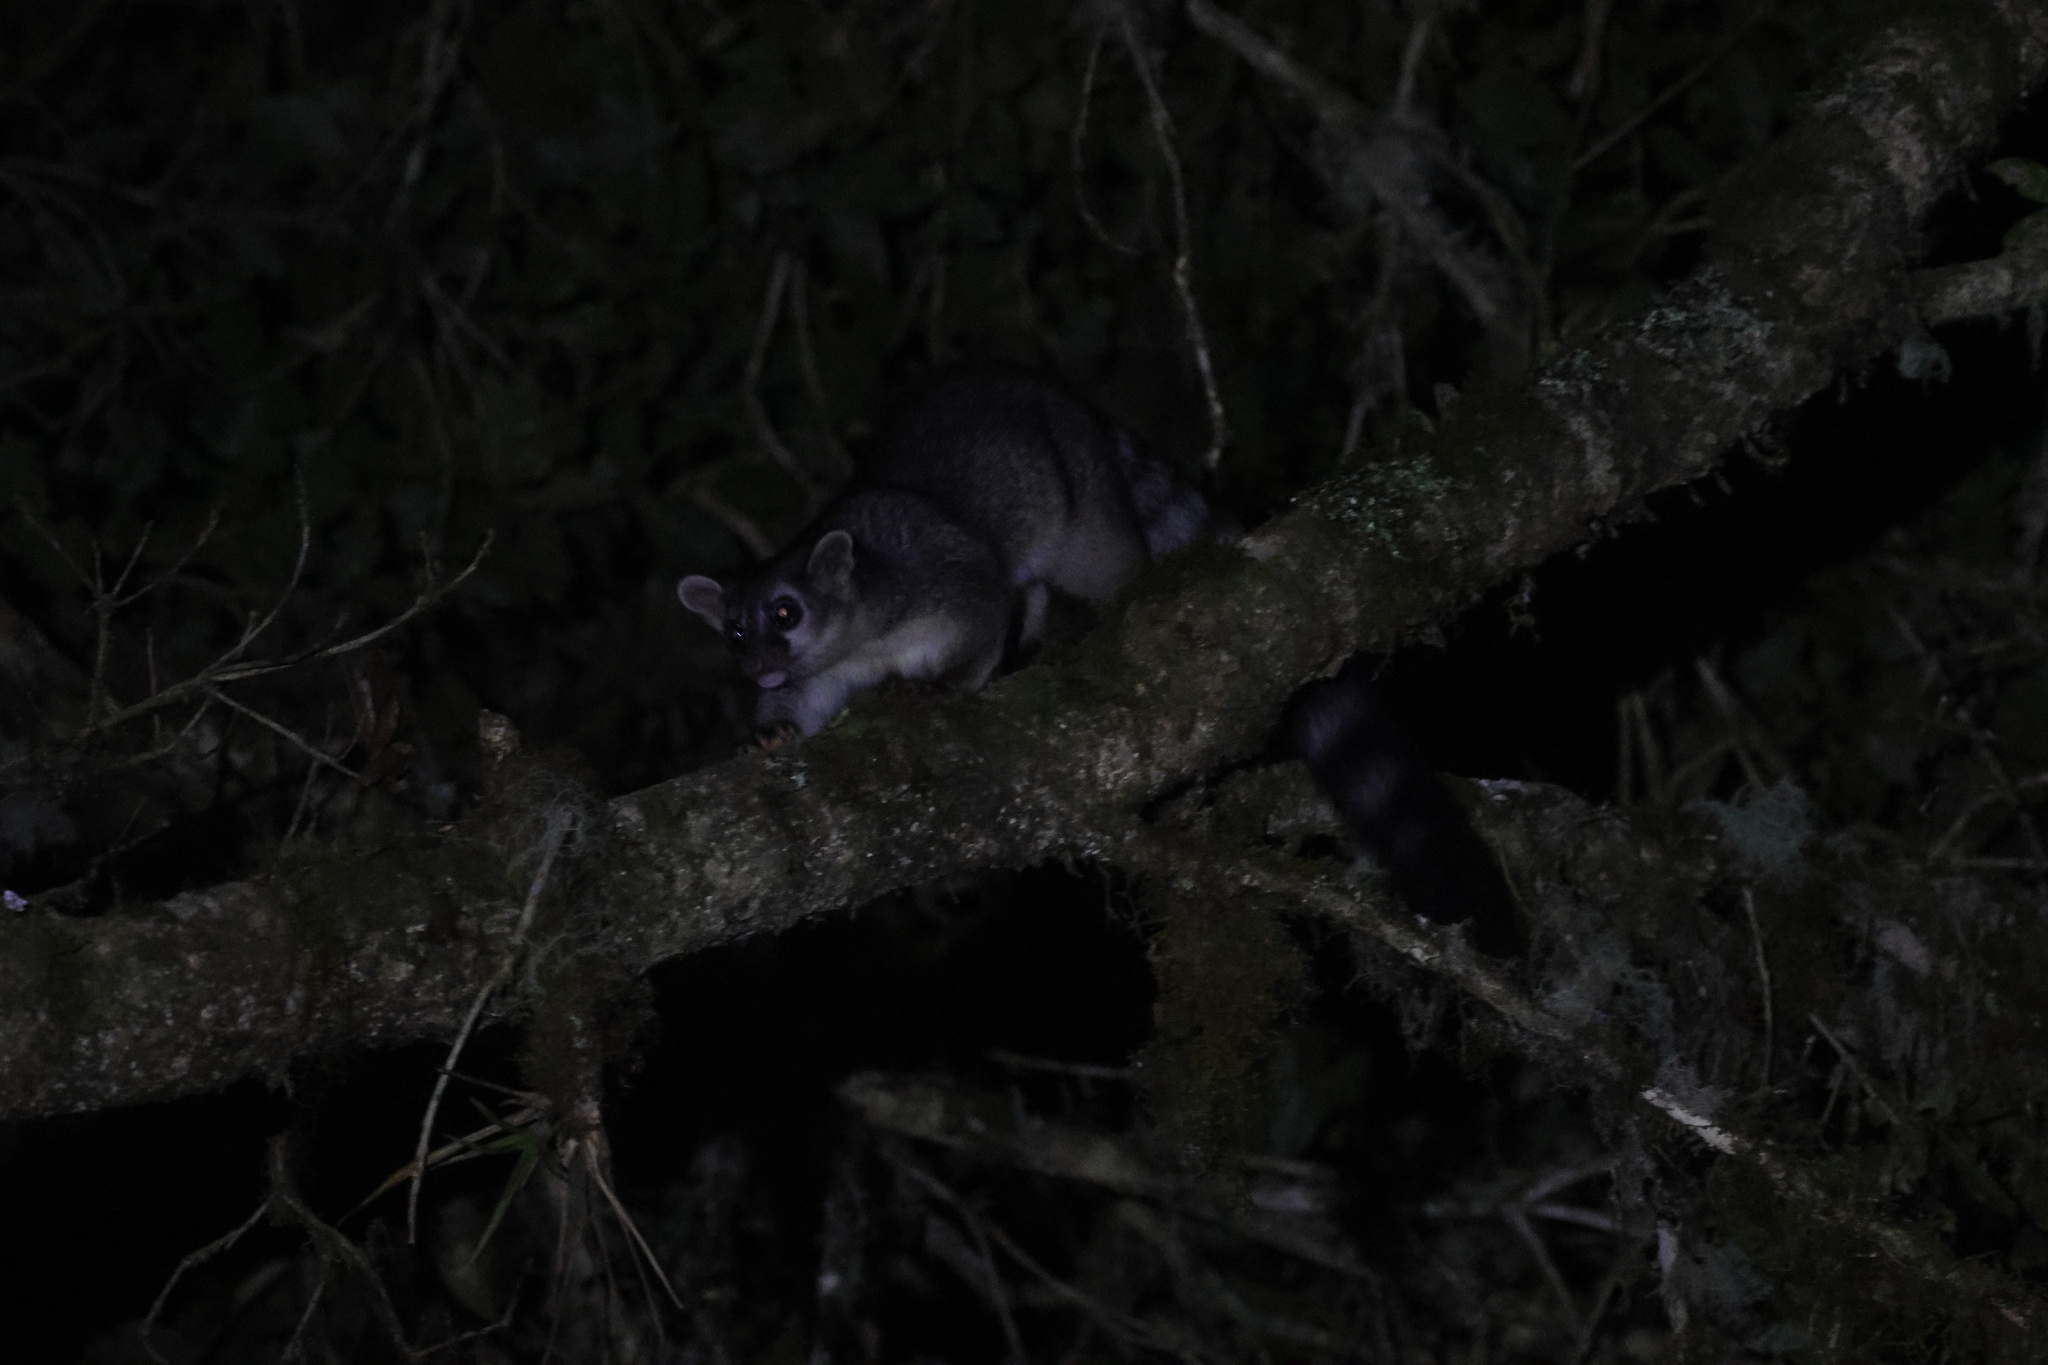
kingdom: Animalia
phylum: Chordata
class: Mammalia
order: Carnivora
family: Procyonidae
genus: Bassariscus
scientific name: Bassariscus sumichrasti
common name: Cacomistle
